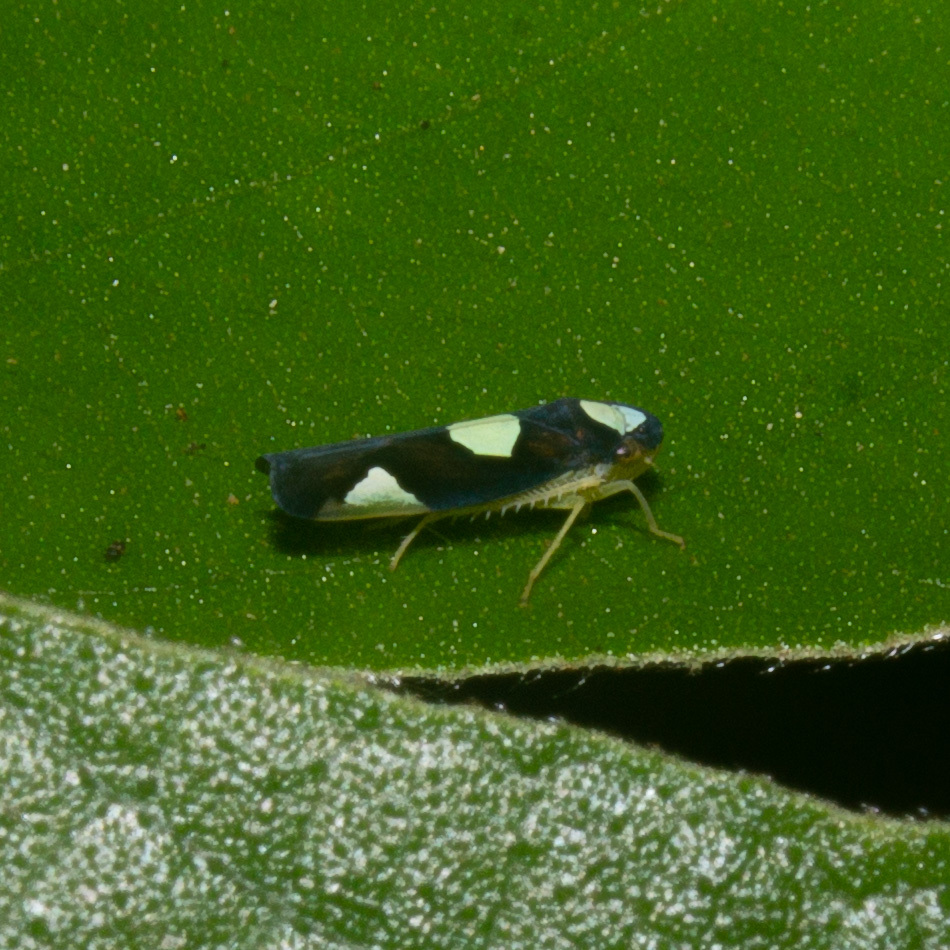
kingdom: Animalia
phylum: Arthropoda
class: Insecta
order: Hemiptera
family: Cicadellidae
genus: Erythrogonia
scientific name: Erythrogonia quadriplagiata
